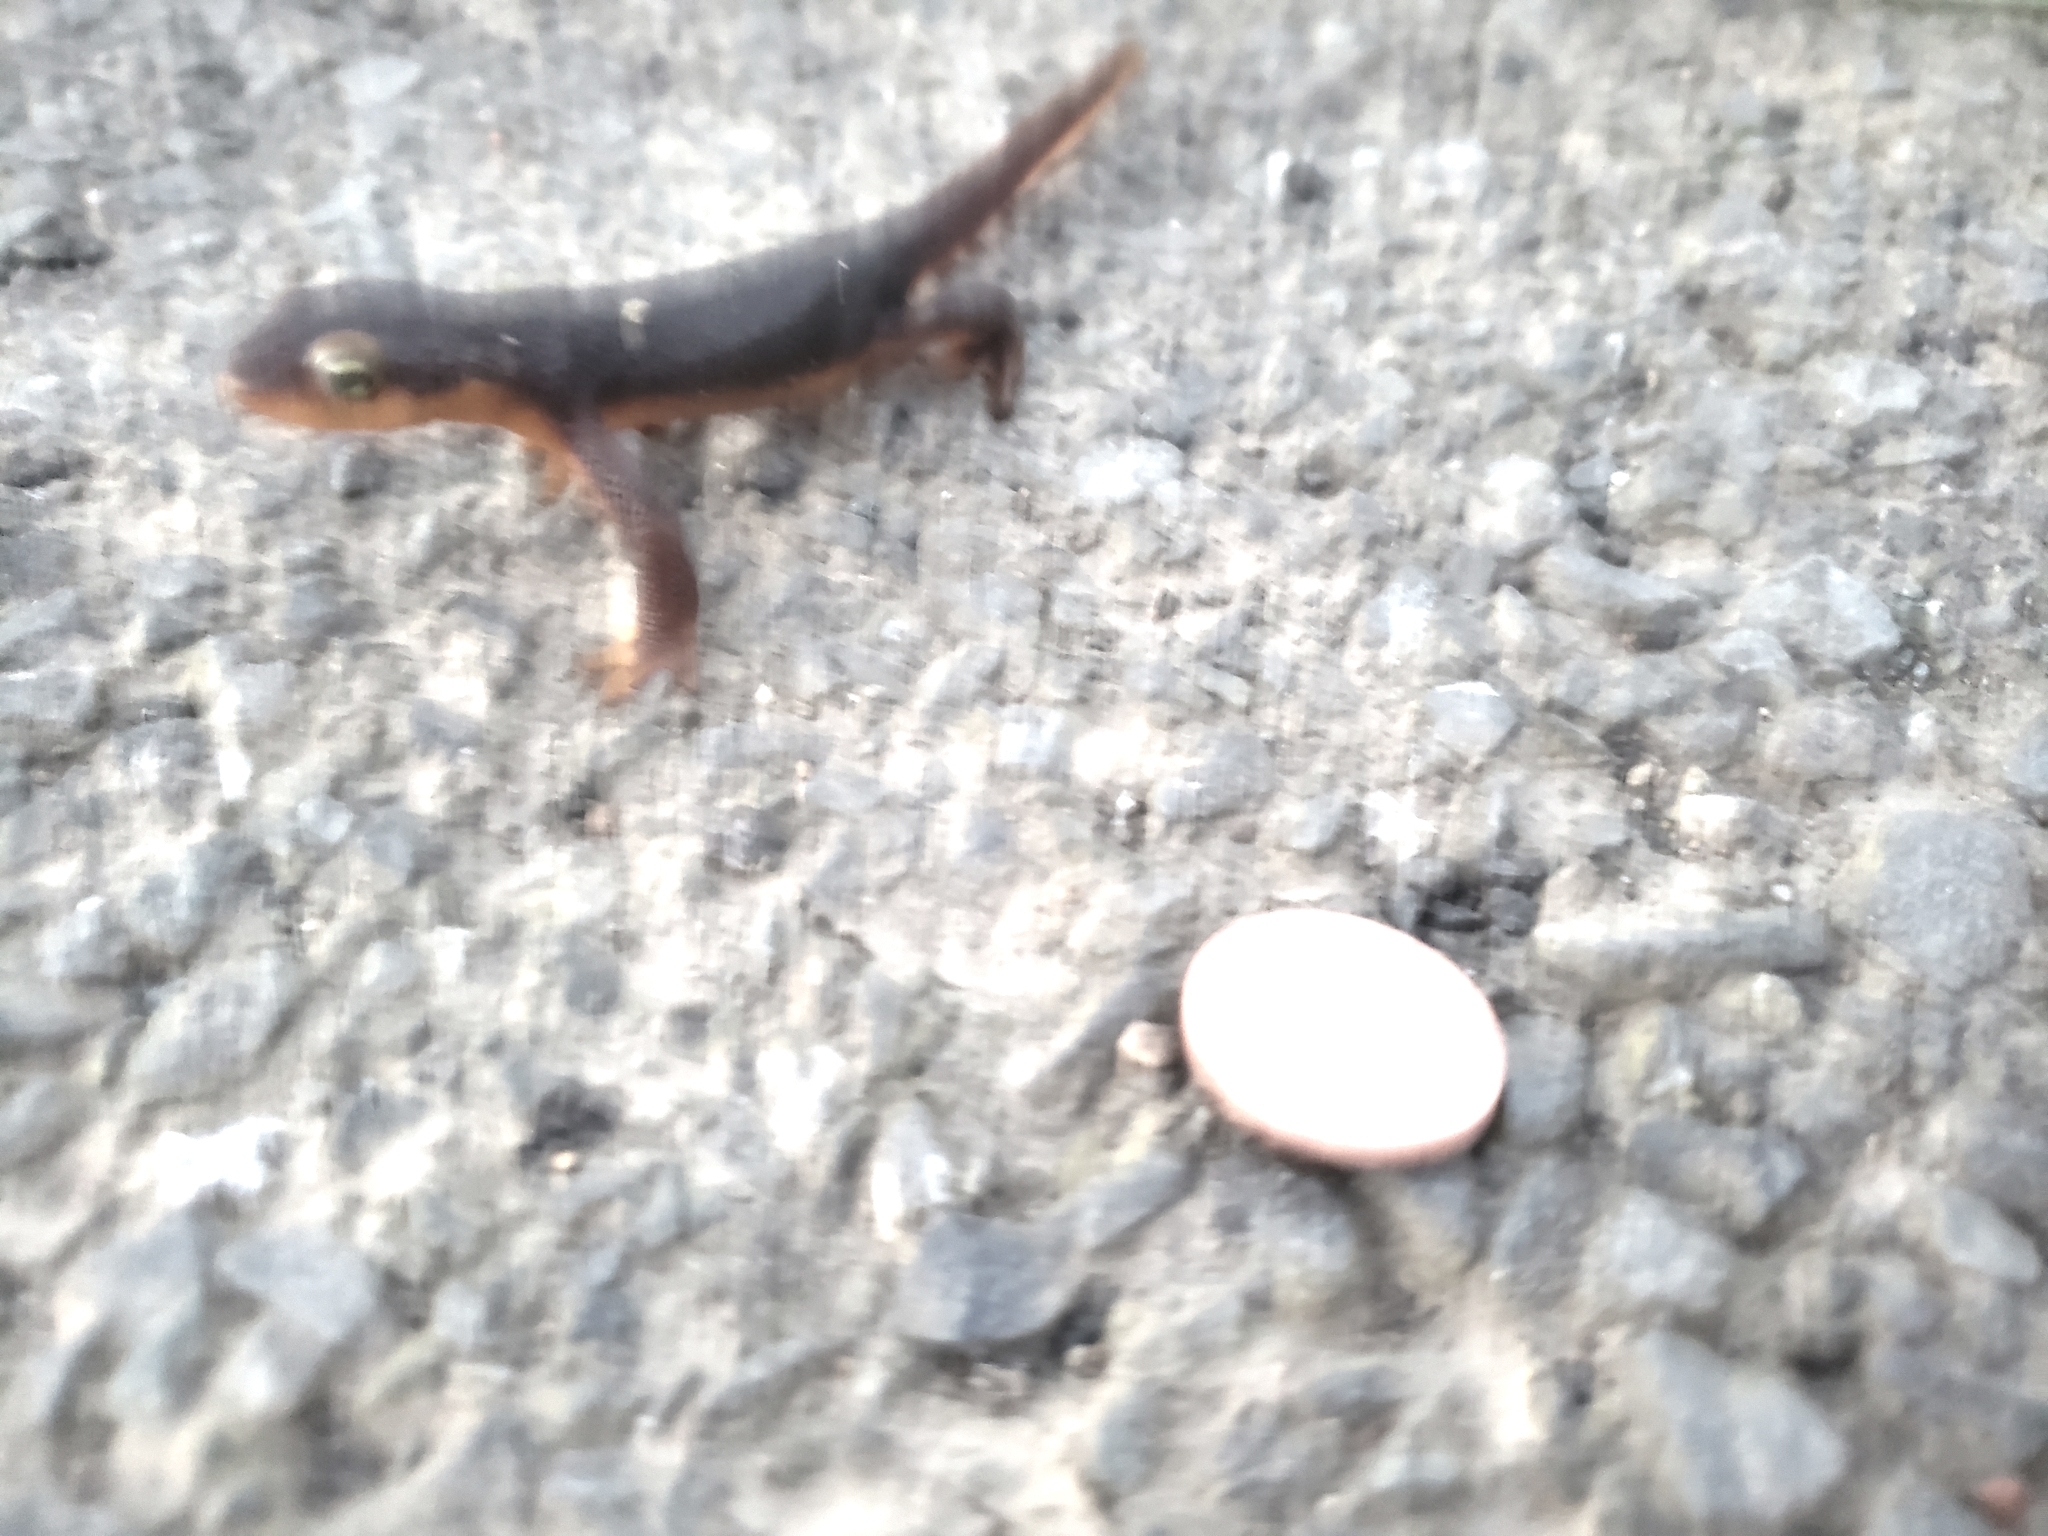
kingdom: Animalia
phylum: Chordata
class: Amphibia
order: Caudata
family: Salamandridae
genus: Taricha
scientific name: Taricha torosa
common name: California newt
